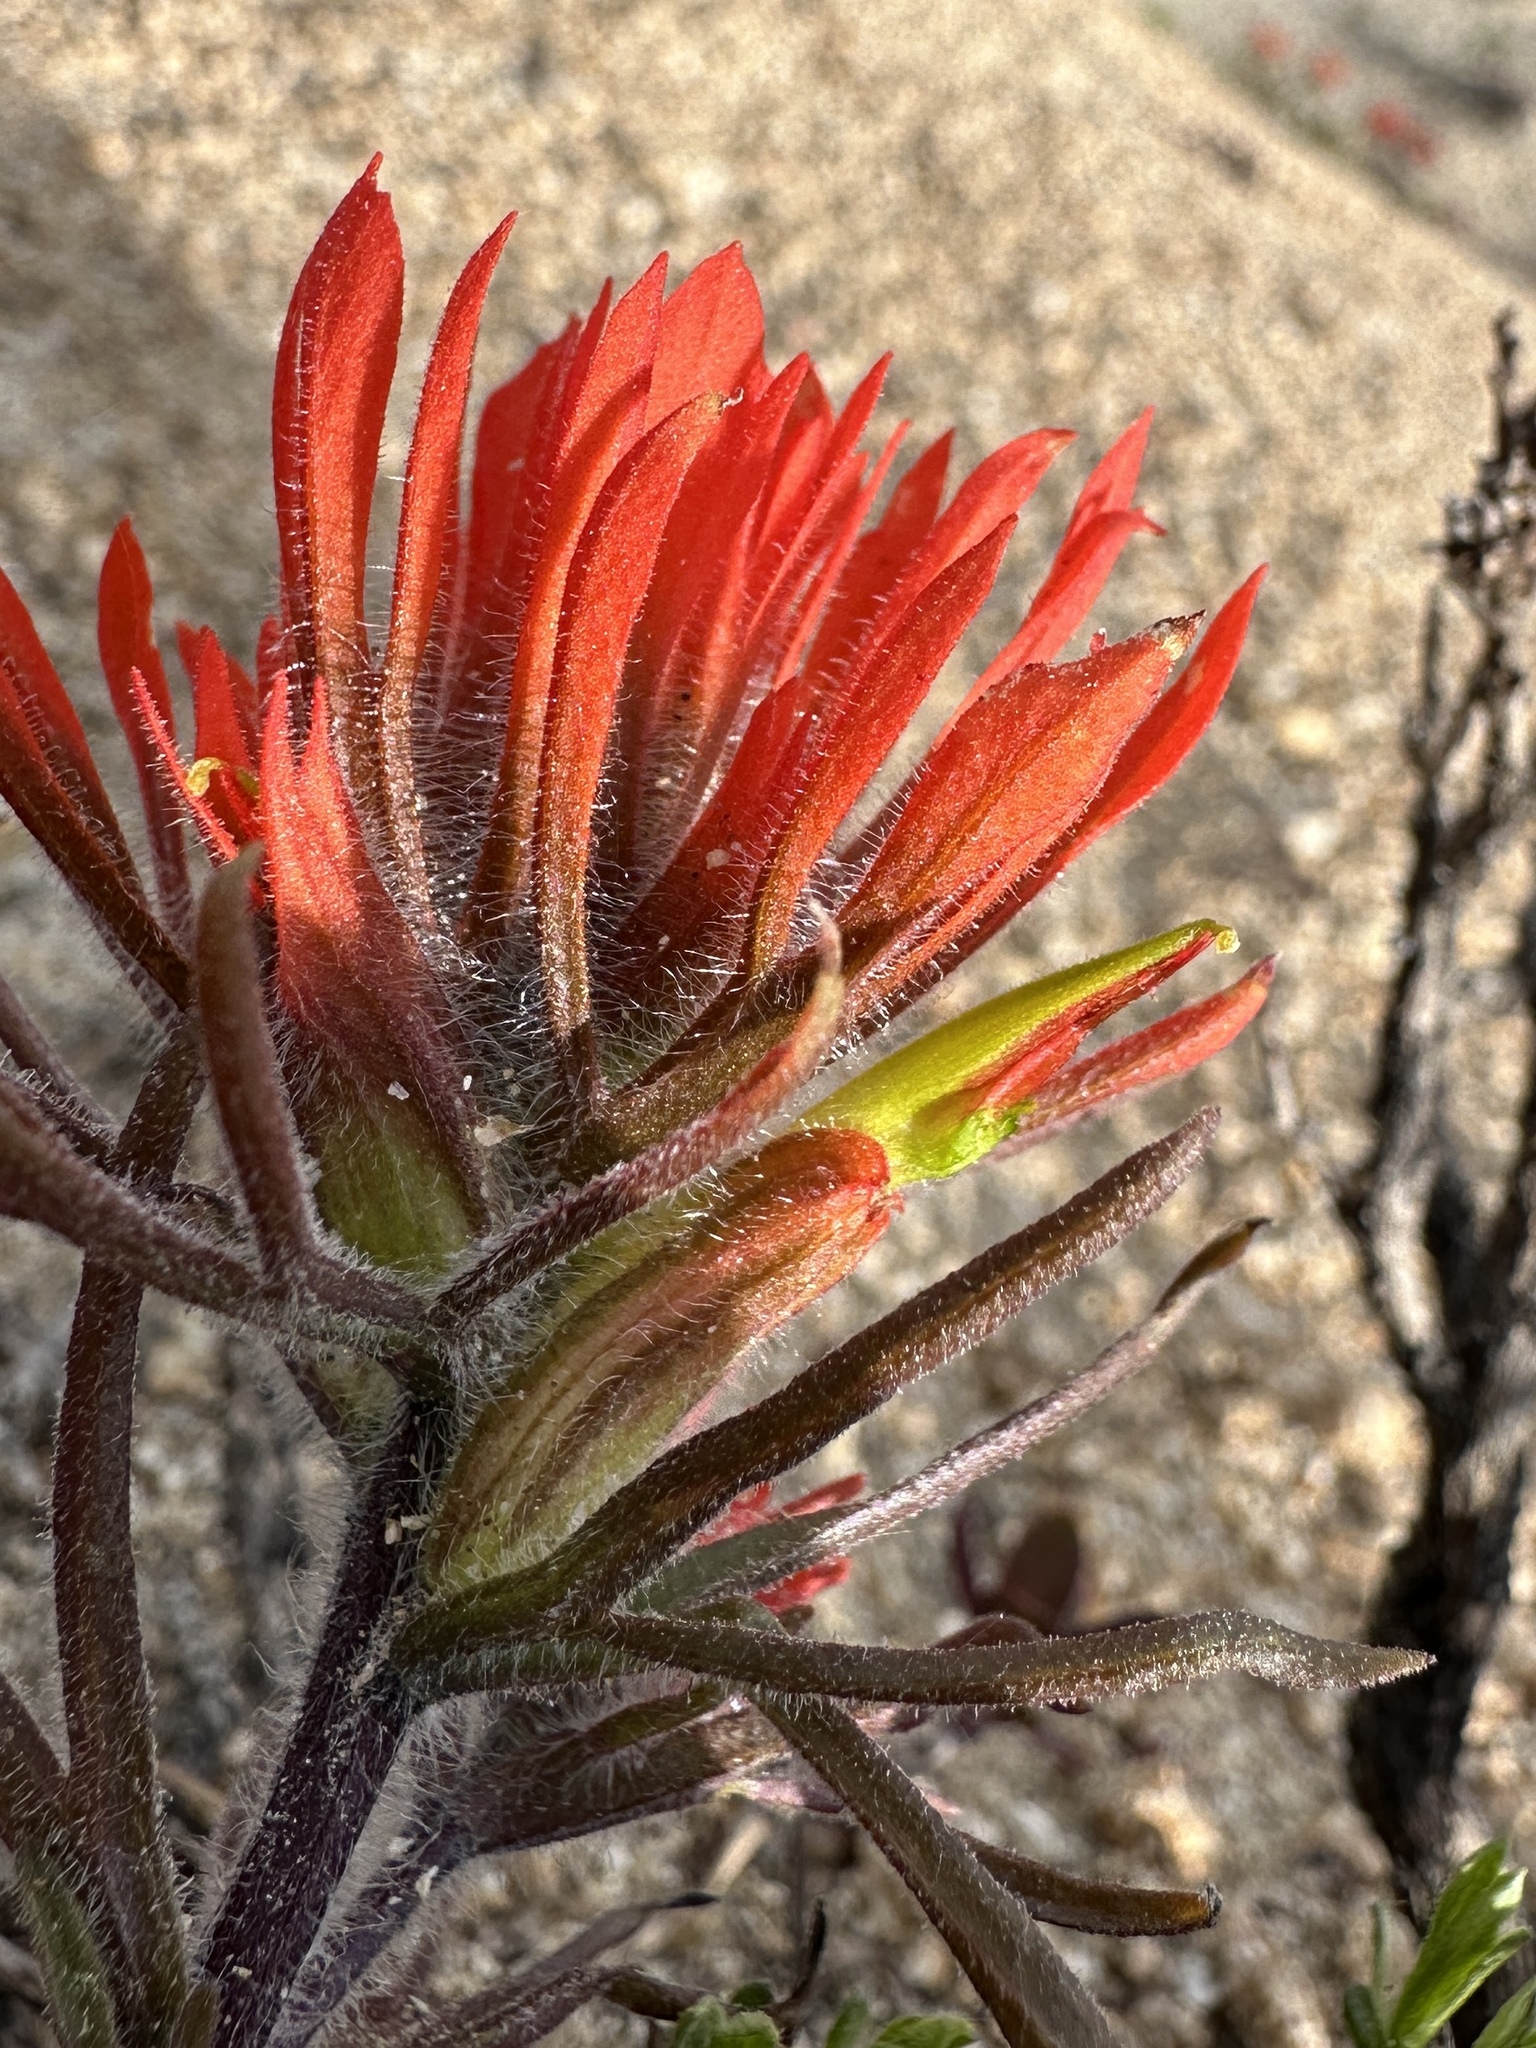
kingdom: Plantae
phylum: Tracheophyta
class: Magnoliopsida
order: Lamiales
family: Orobanchaceae
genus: Castilleja
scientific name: Castilleja covilleana
